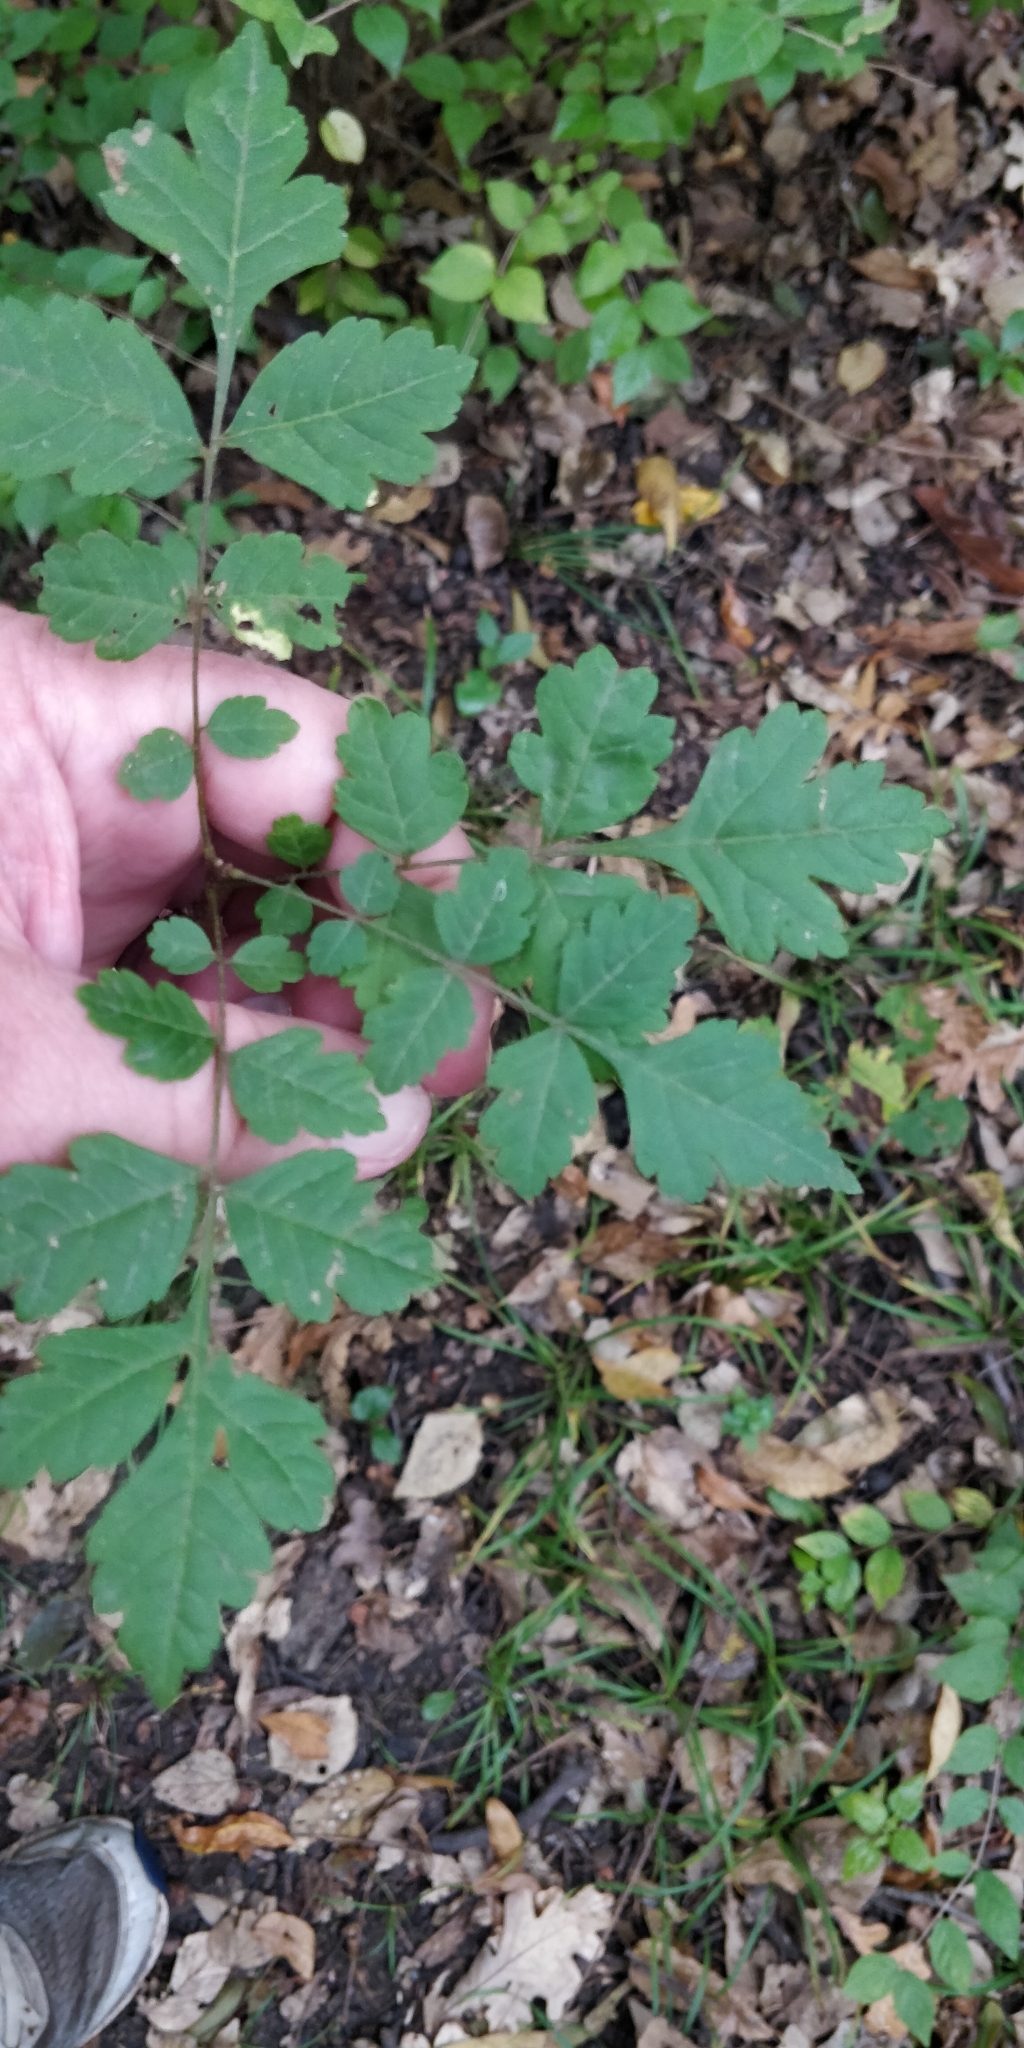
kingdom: Plantae
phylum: Tracheophyta
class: Magnoliopsida
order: Sapindales
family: Sapindaceae
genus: Koelreuteria
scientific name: Koelreuteria paniculata
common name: Pride-of-india
